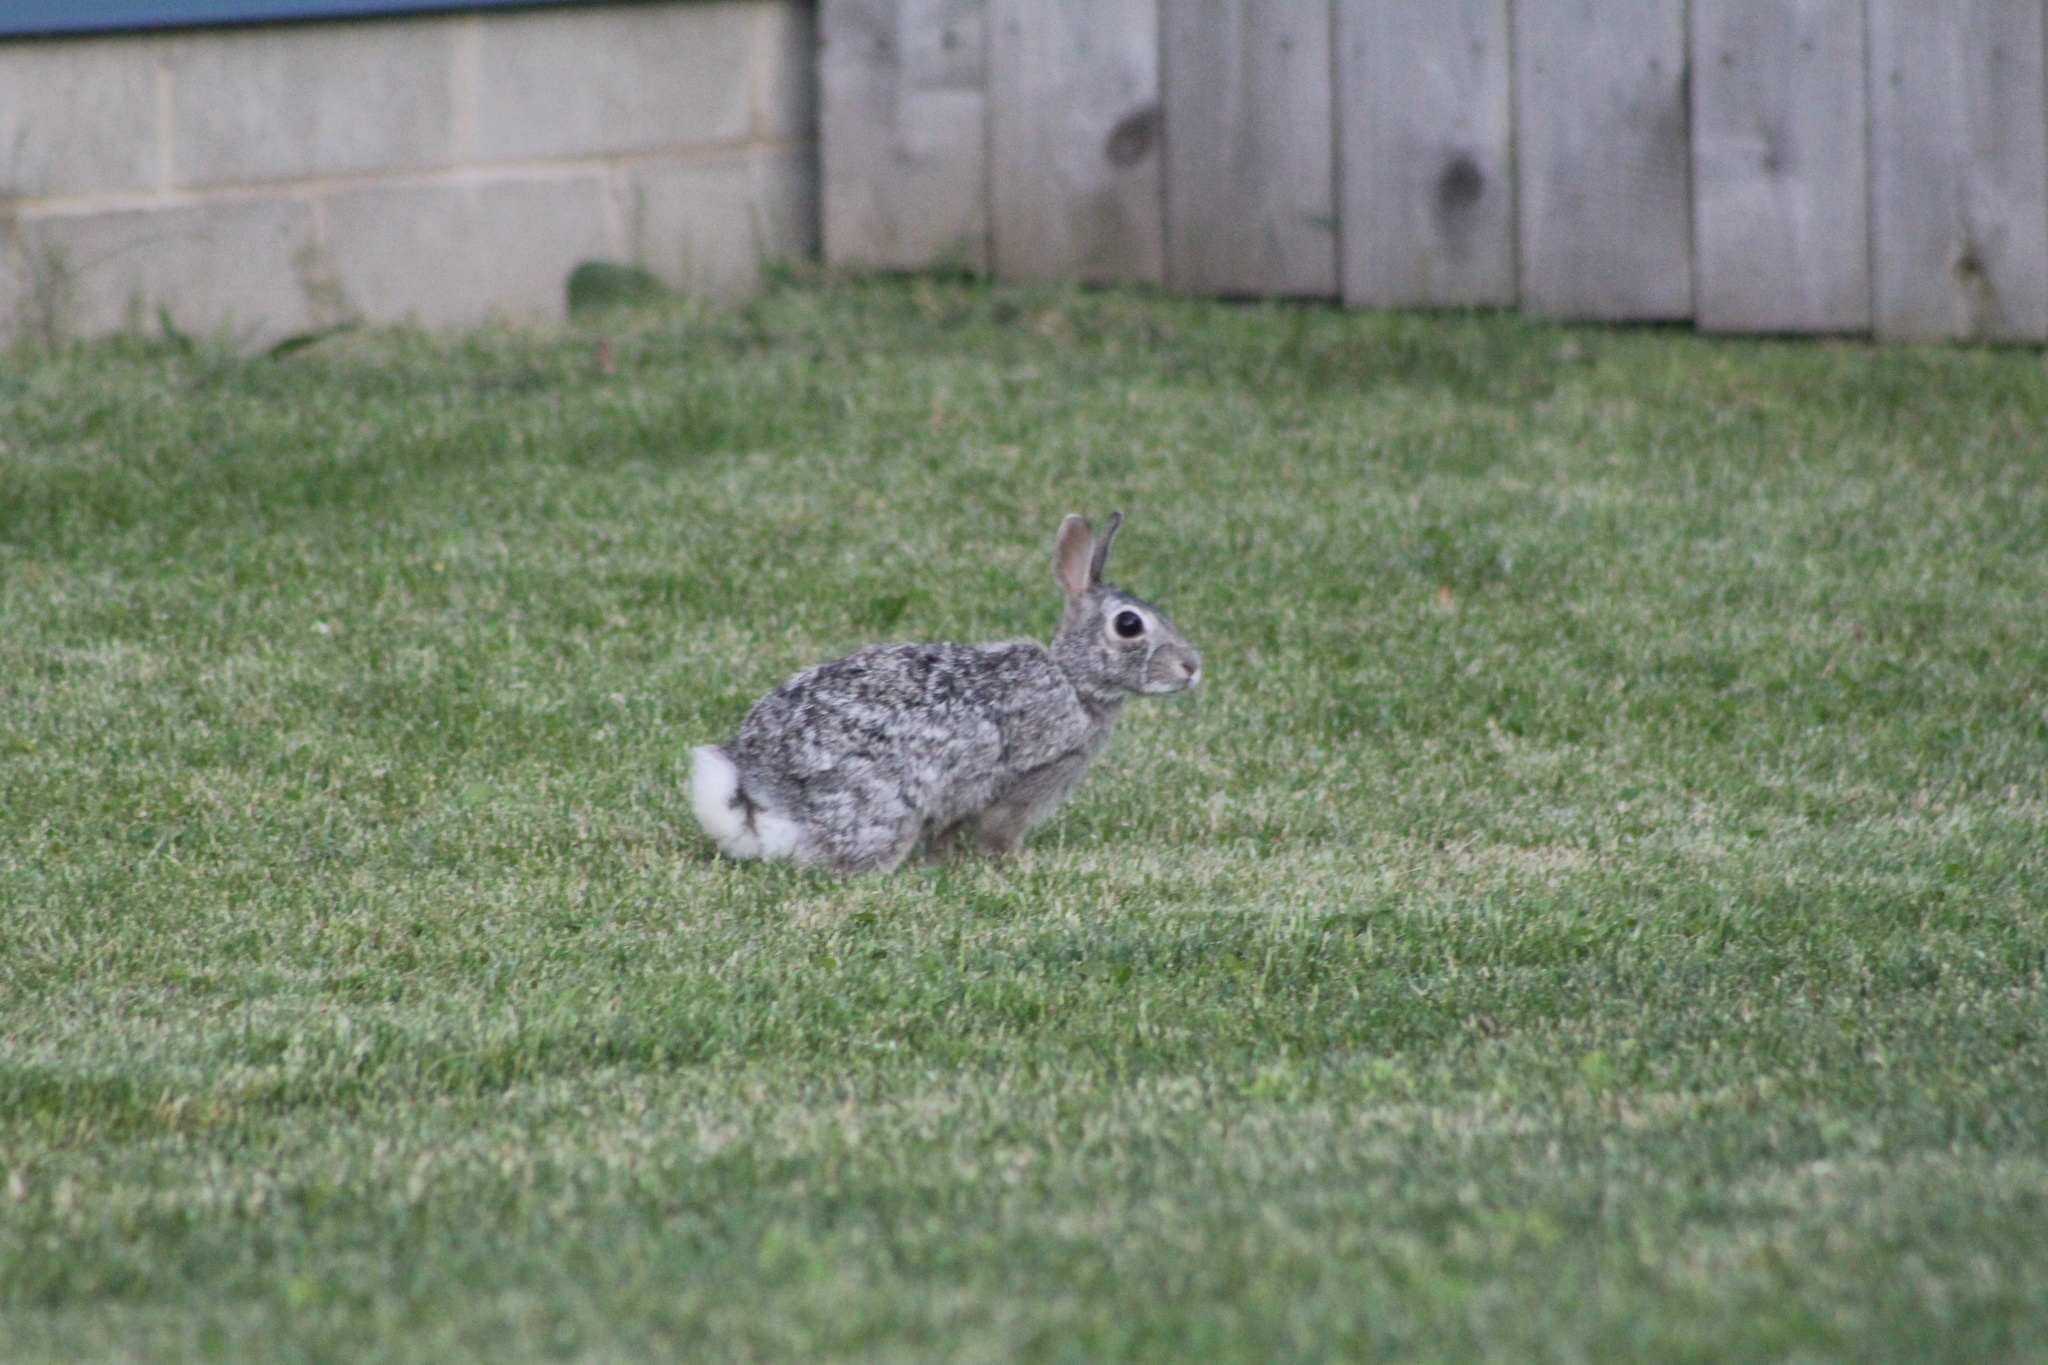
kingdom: Animalia
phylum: Chordata
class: Mammalia
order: Lagomorpha
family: Leporidae
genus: Sylvilagus
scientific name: Sylvilagus floridanus
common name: Eastern cottontail
